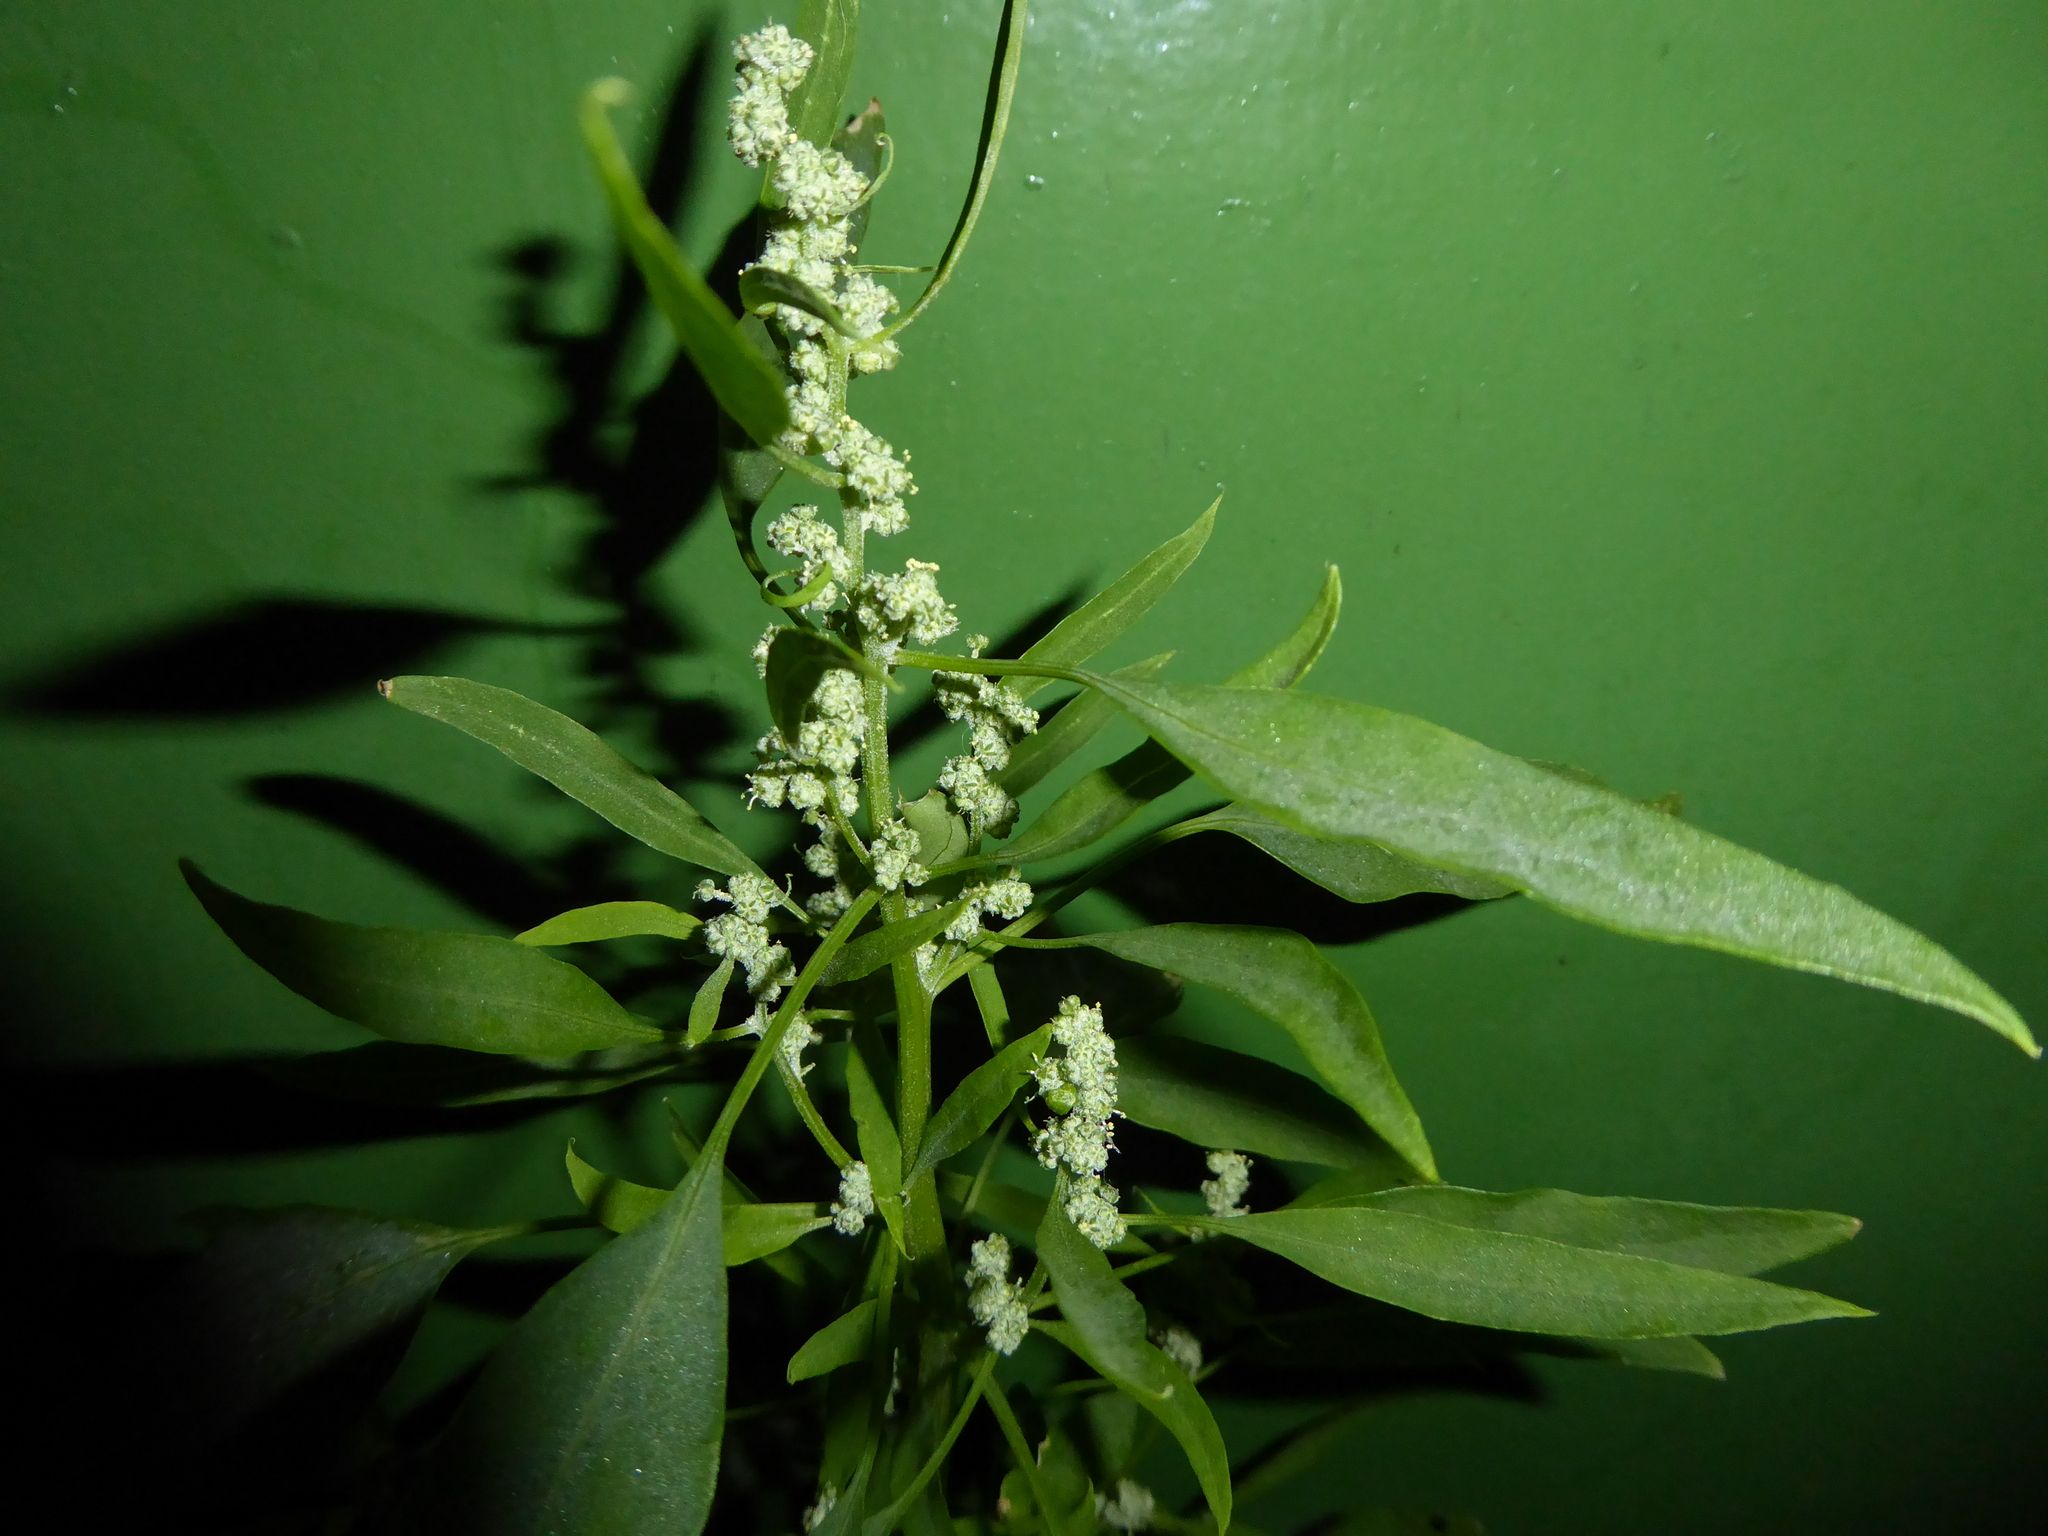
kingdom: Plantae
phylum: Tracheophyta
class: Magnoliopsida
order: Caryophyllales
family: Amaranthaceae
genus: Chenopodium
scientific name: Chenopodium album
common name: Fat-hen
